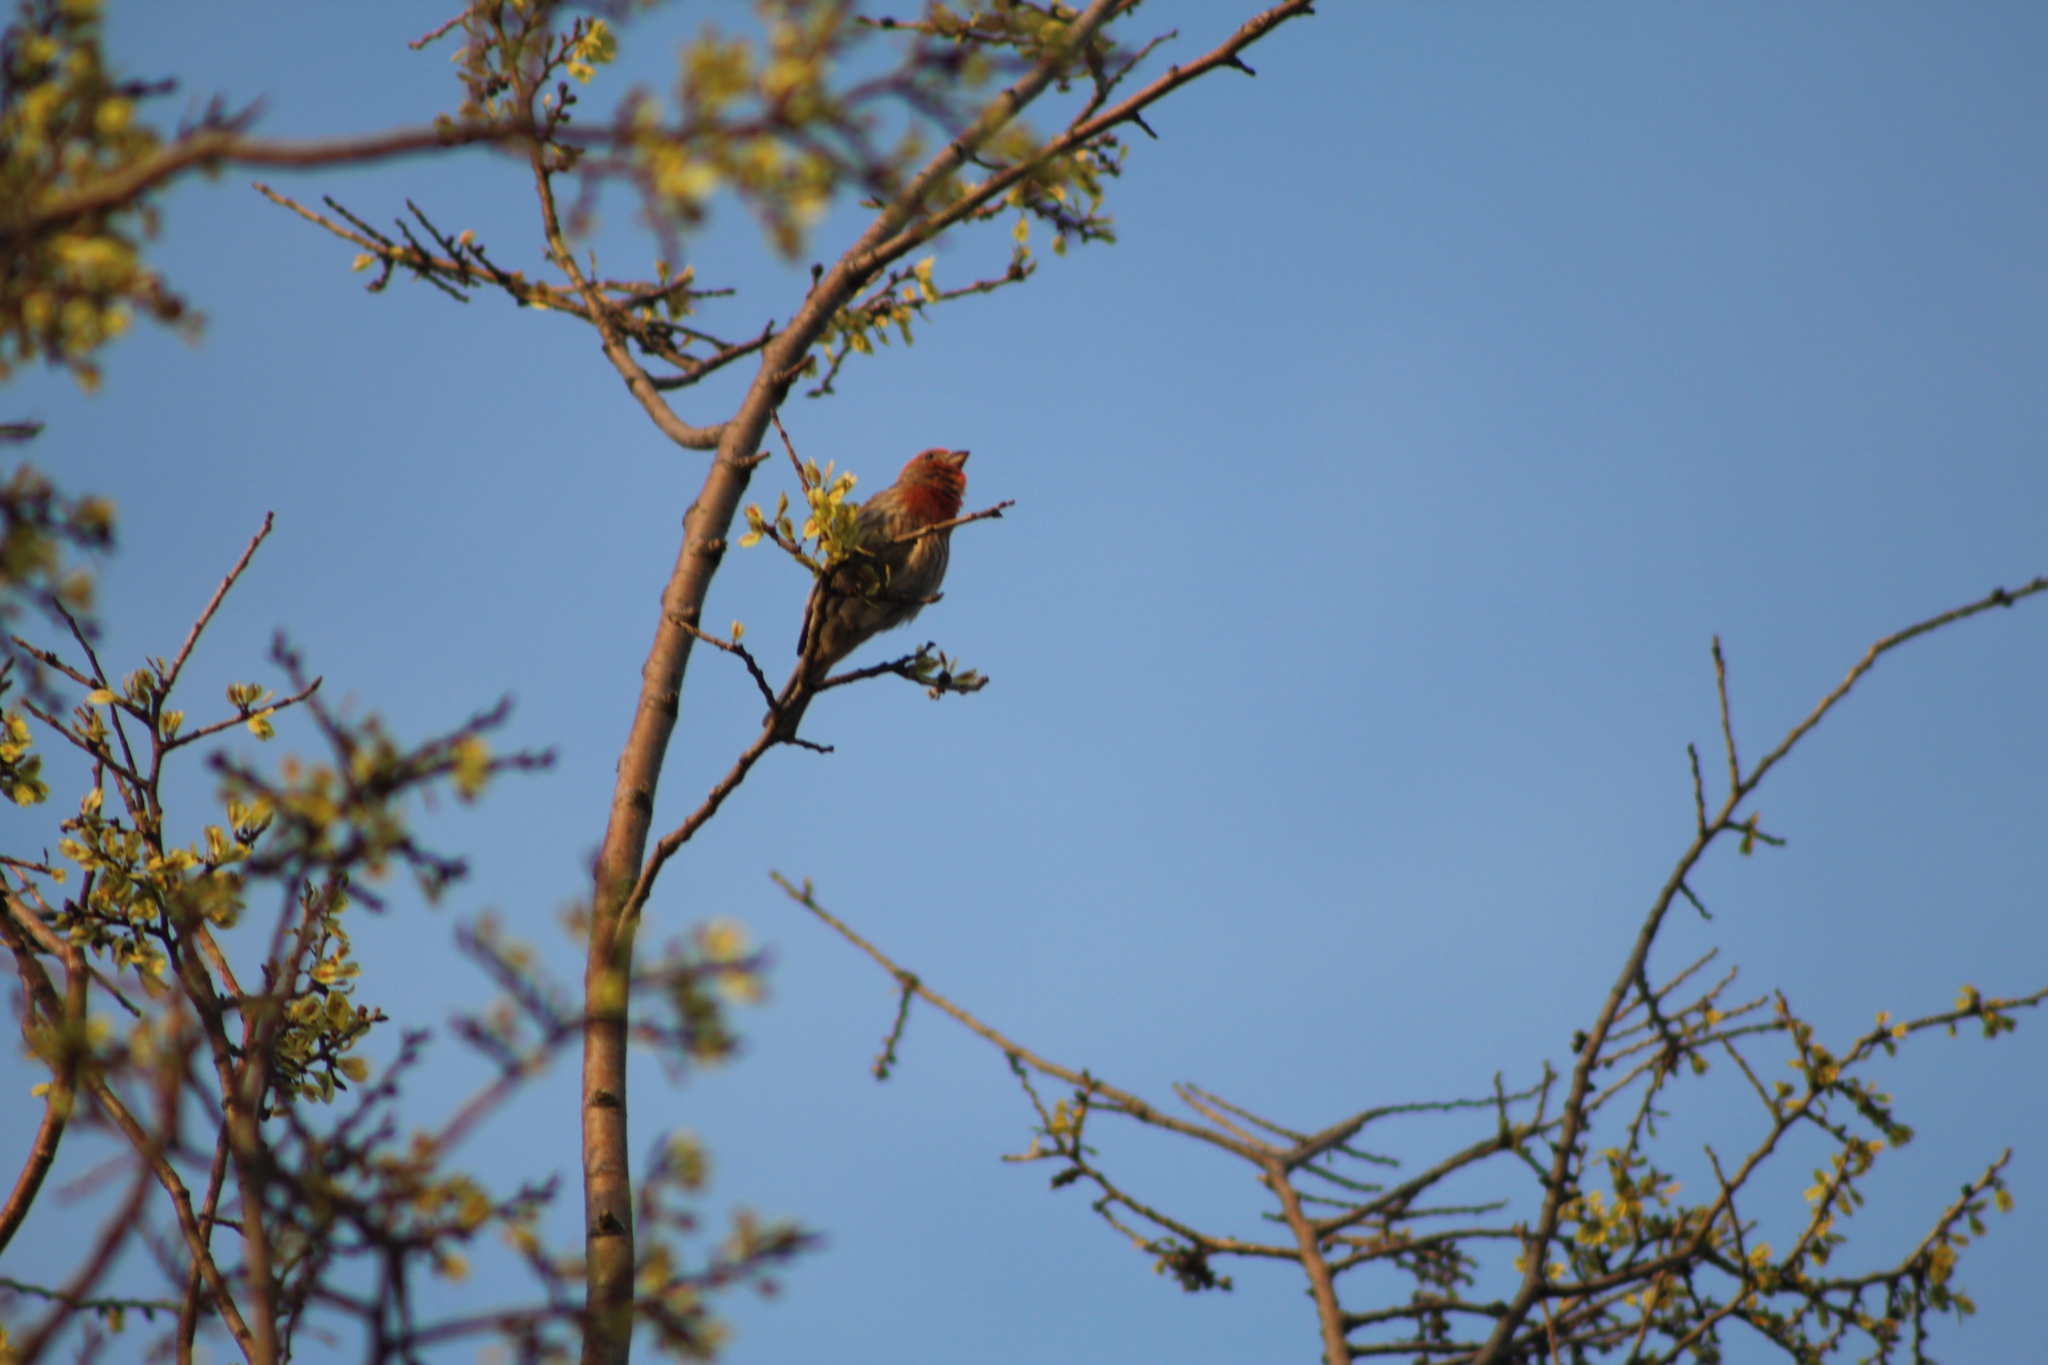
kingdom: Animalia
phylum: Chordata
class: Aves
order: Passeriformes
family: Fringillidae
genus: Haemorhous
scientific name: Haemorhous mexicanus
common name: House finch
